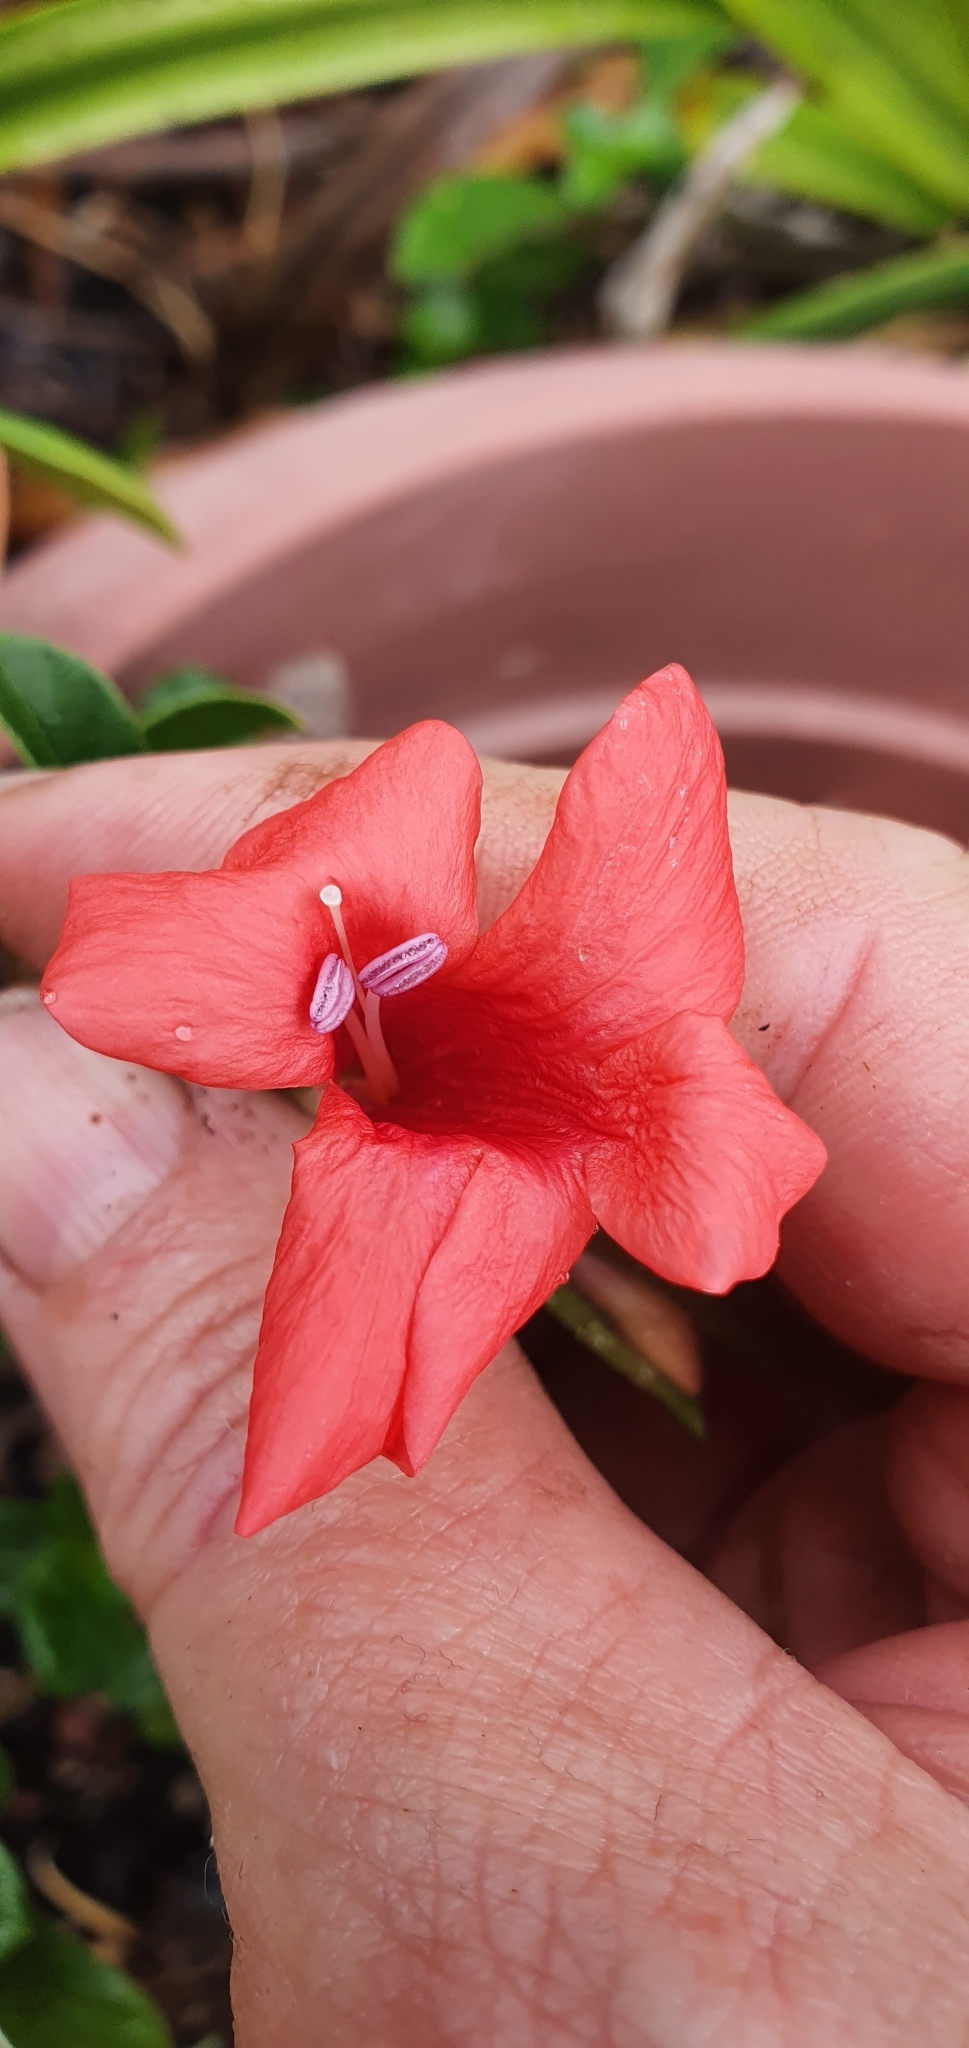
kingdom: Plantae
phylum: Tracheophyta
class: Magnoliopsida
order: Lamiales
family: Acanthaceae
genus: Barleria
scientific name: Barleria repens
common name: Pink-ruellia
